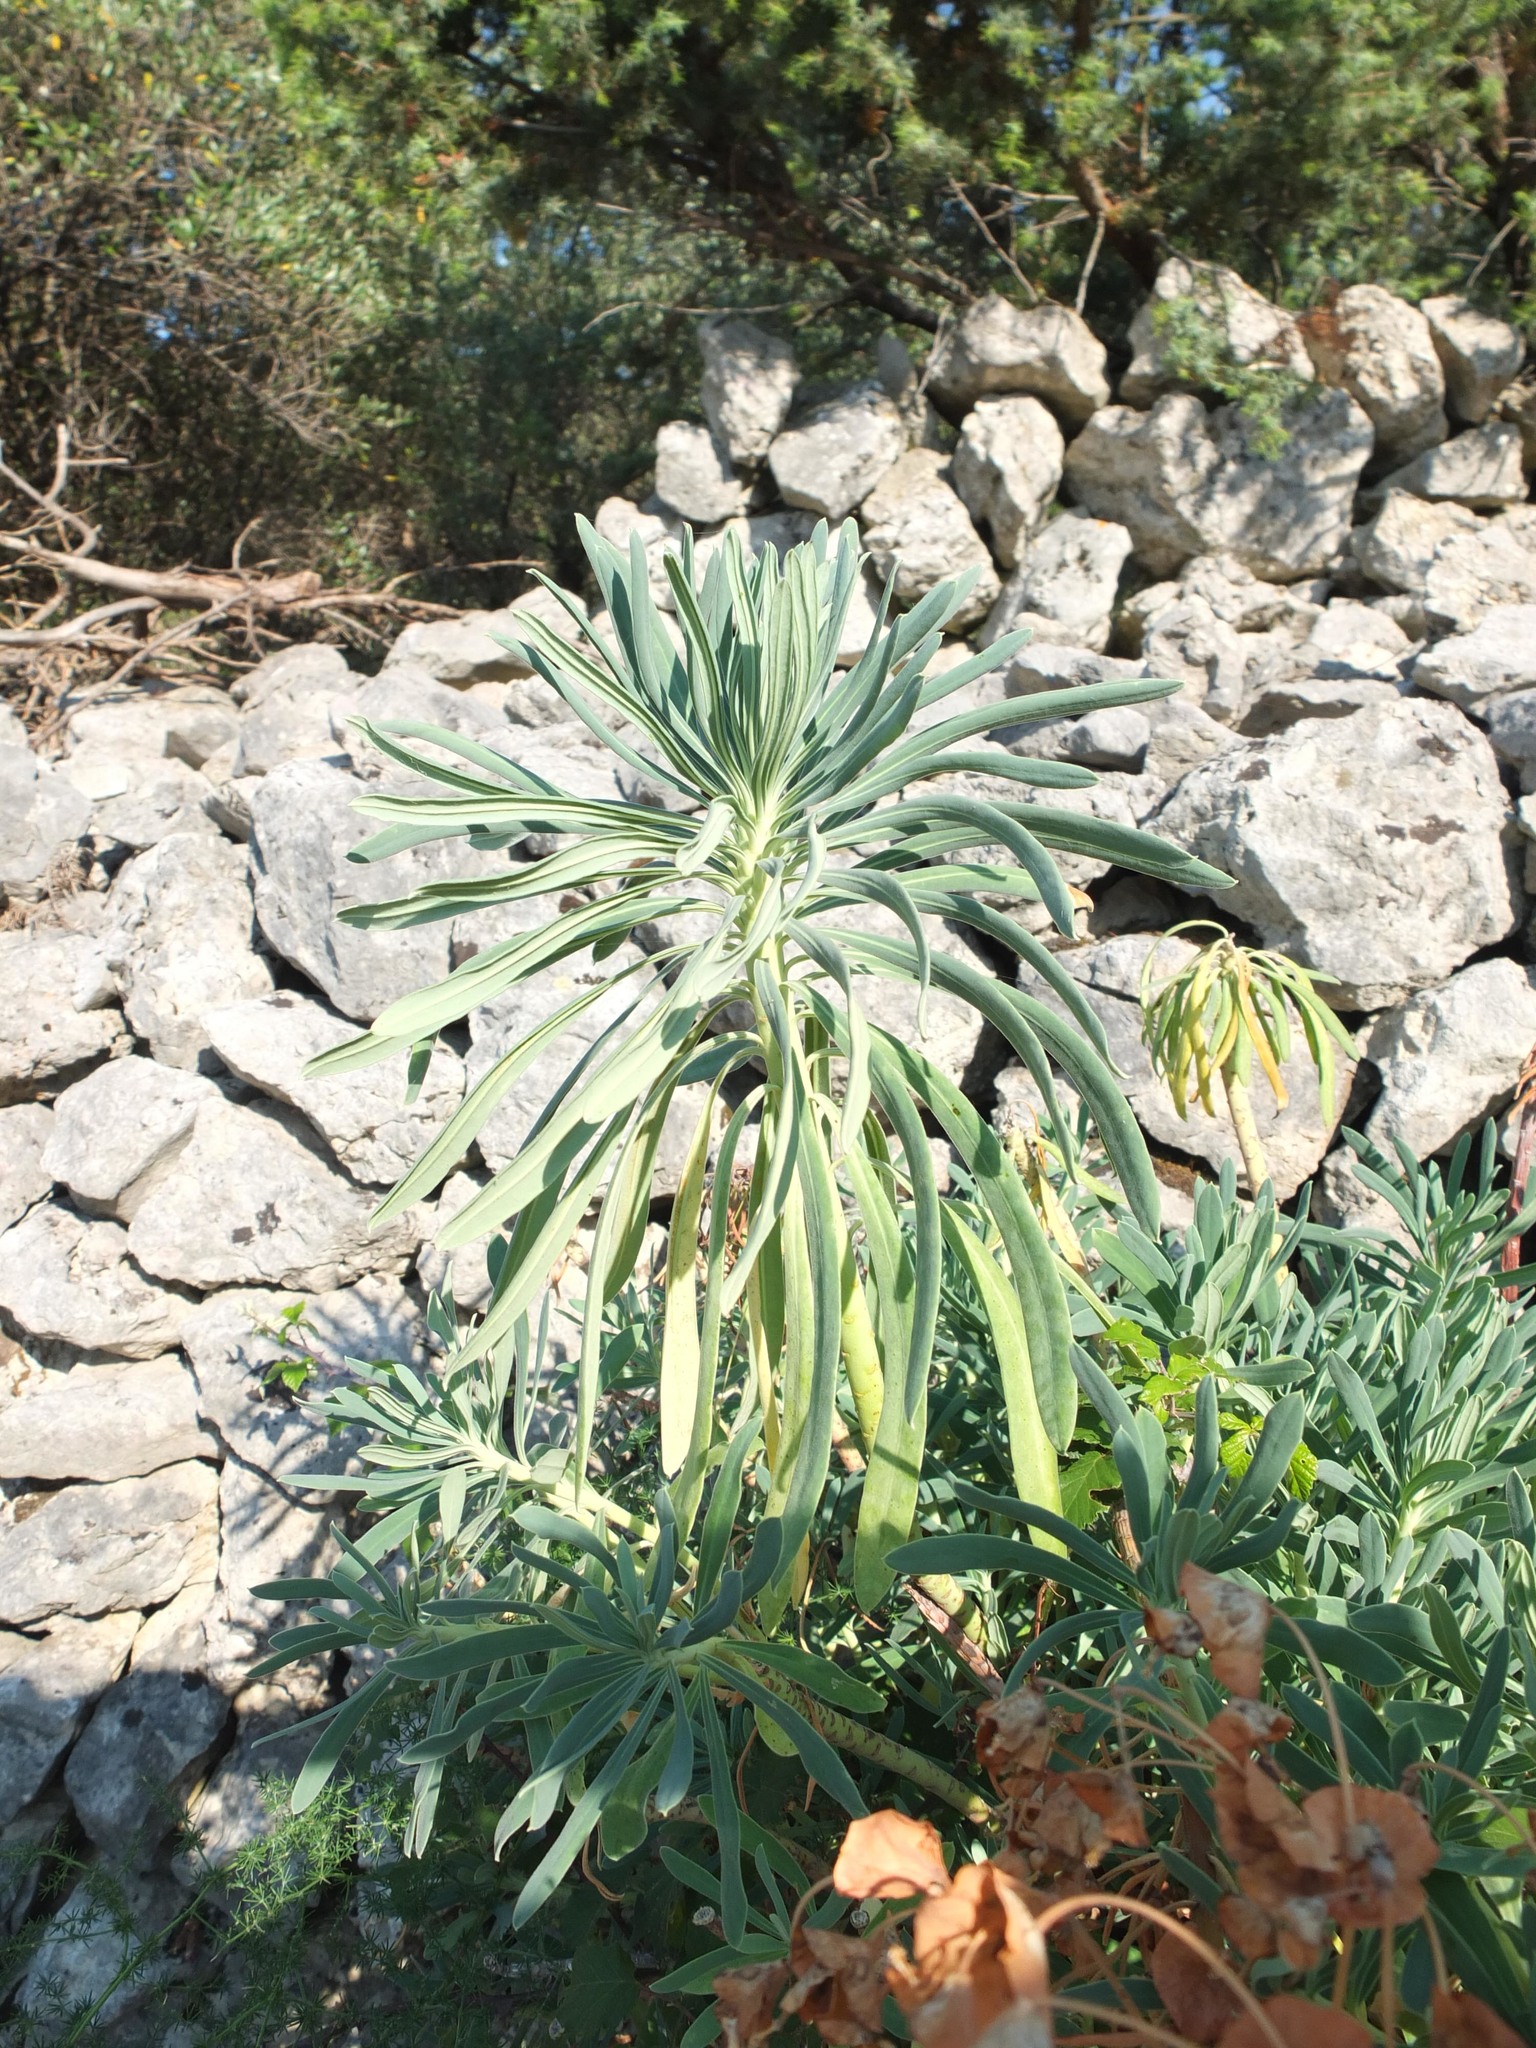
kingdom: Plantae
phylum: Tracheophyta
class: Magnoliopsida
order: Malpighiales
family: Euphorbiaceae
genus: Euphorbia
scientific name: Euphorbia characias
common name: Mediterranean spurge
